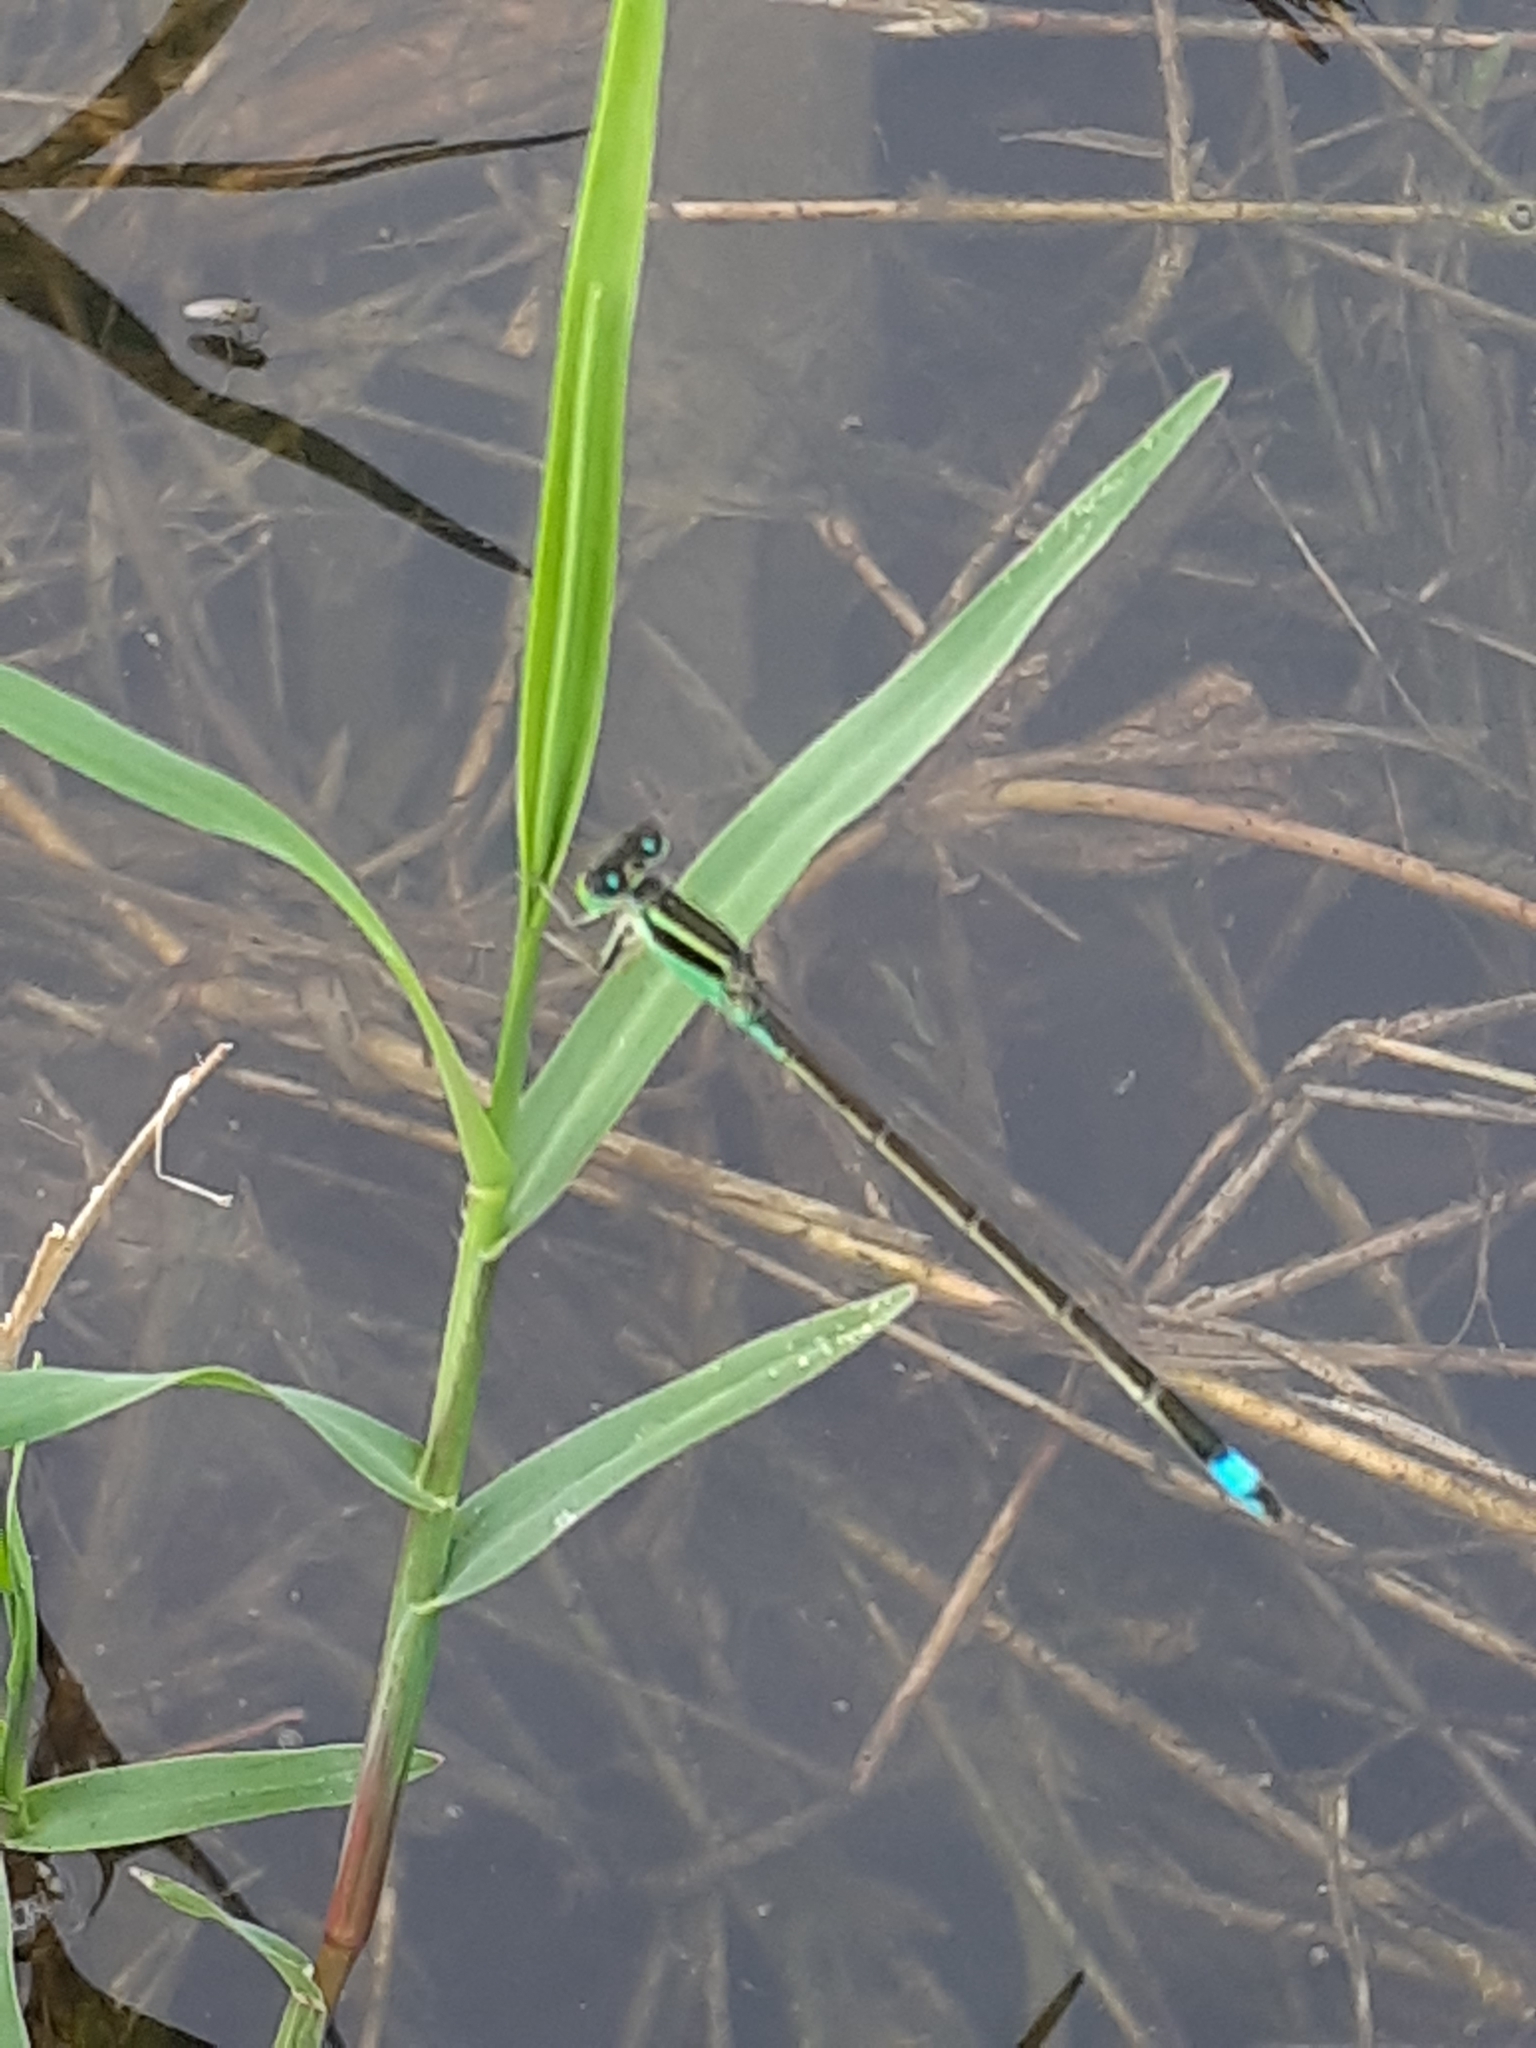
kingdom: Animalia
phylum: Arthropoda
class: Insecta
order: Odonata
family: Coenagrionidae
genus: Ischnura
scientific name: Ischnura senegalensis
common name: Tropical bluetail
